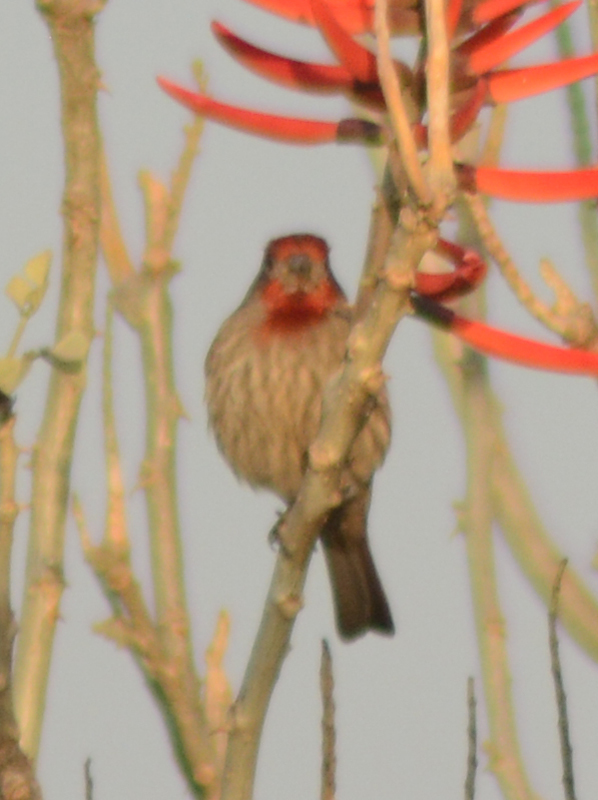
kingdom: Animalia
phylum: Chordata
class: Aves
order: Passeriformes
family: Fringillidae
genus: Haemorhous
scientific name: Haemorhous mexicanus
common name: House finch
